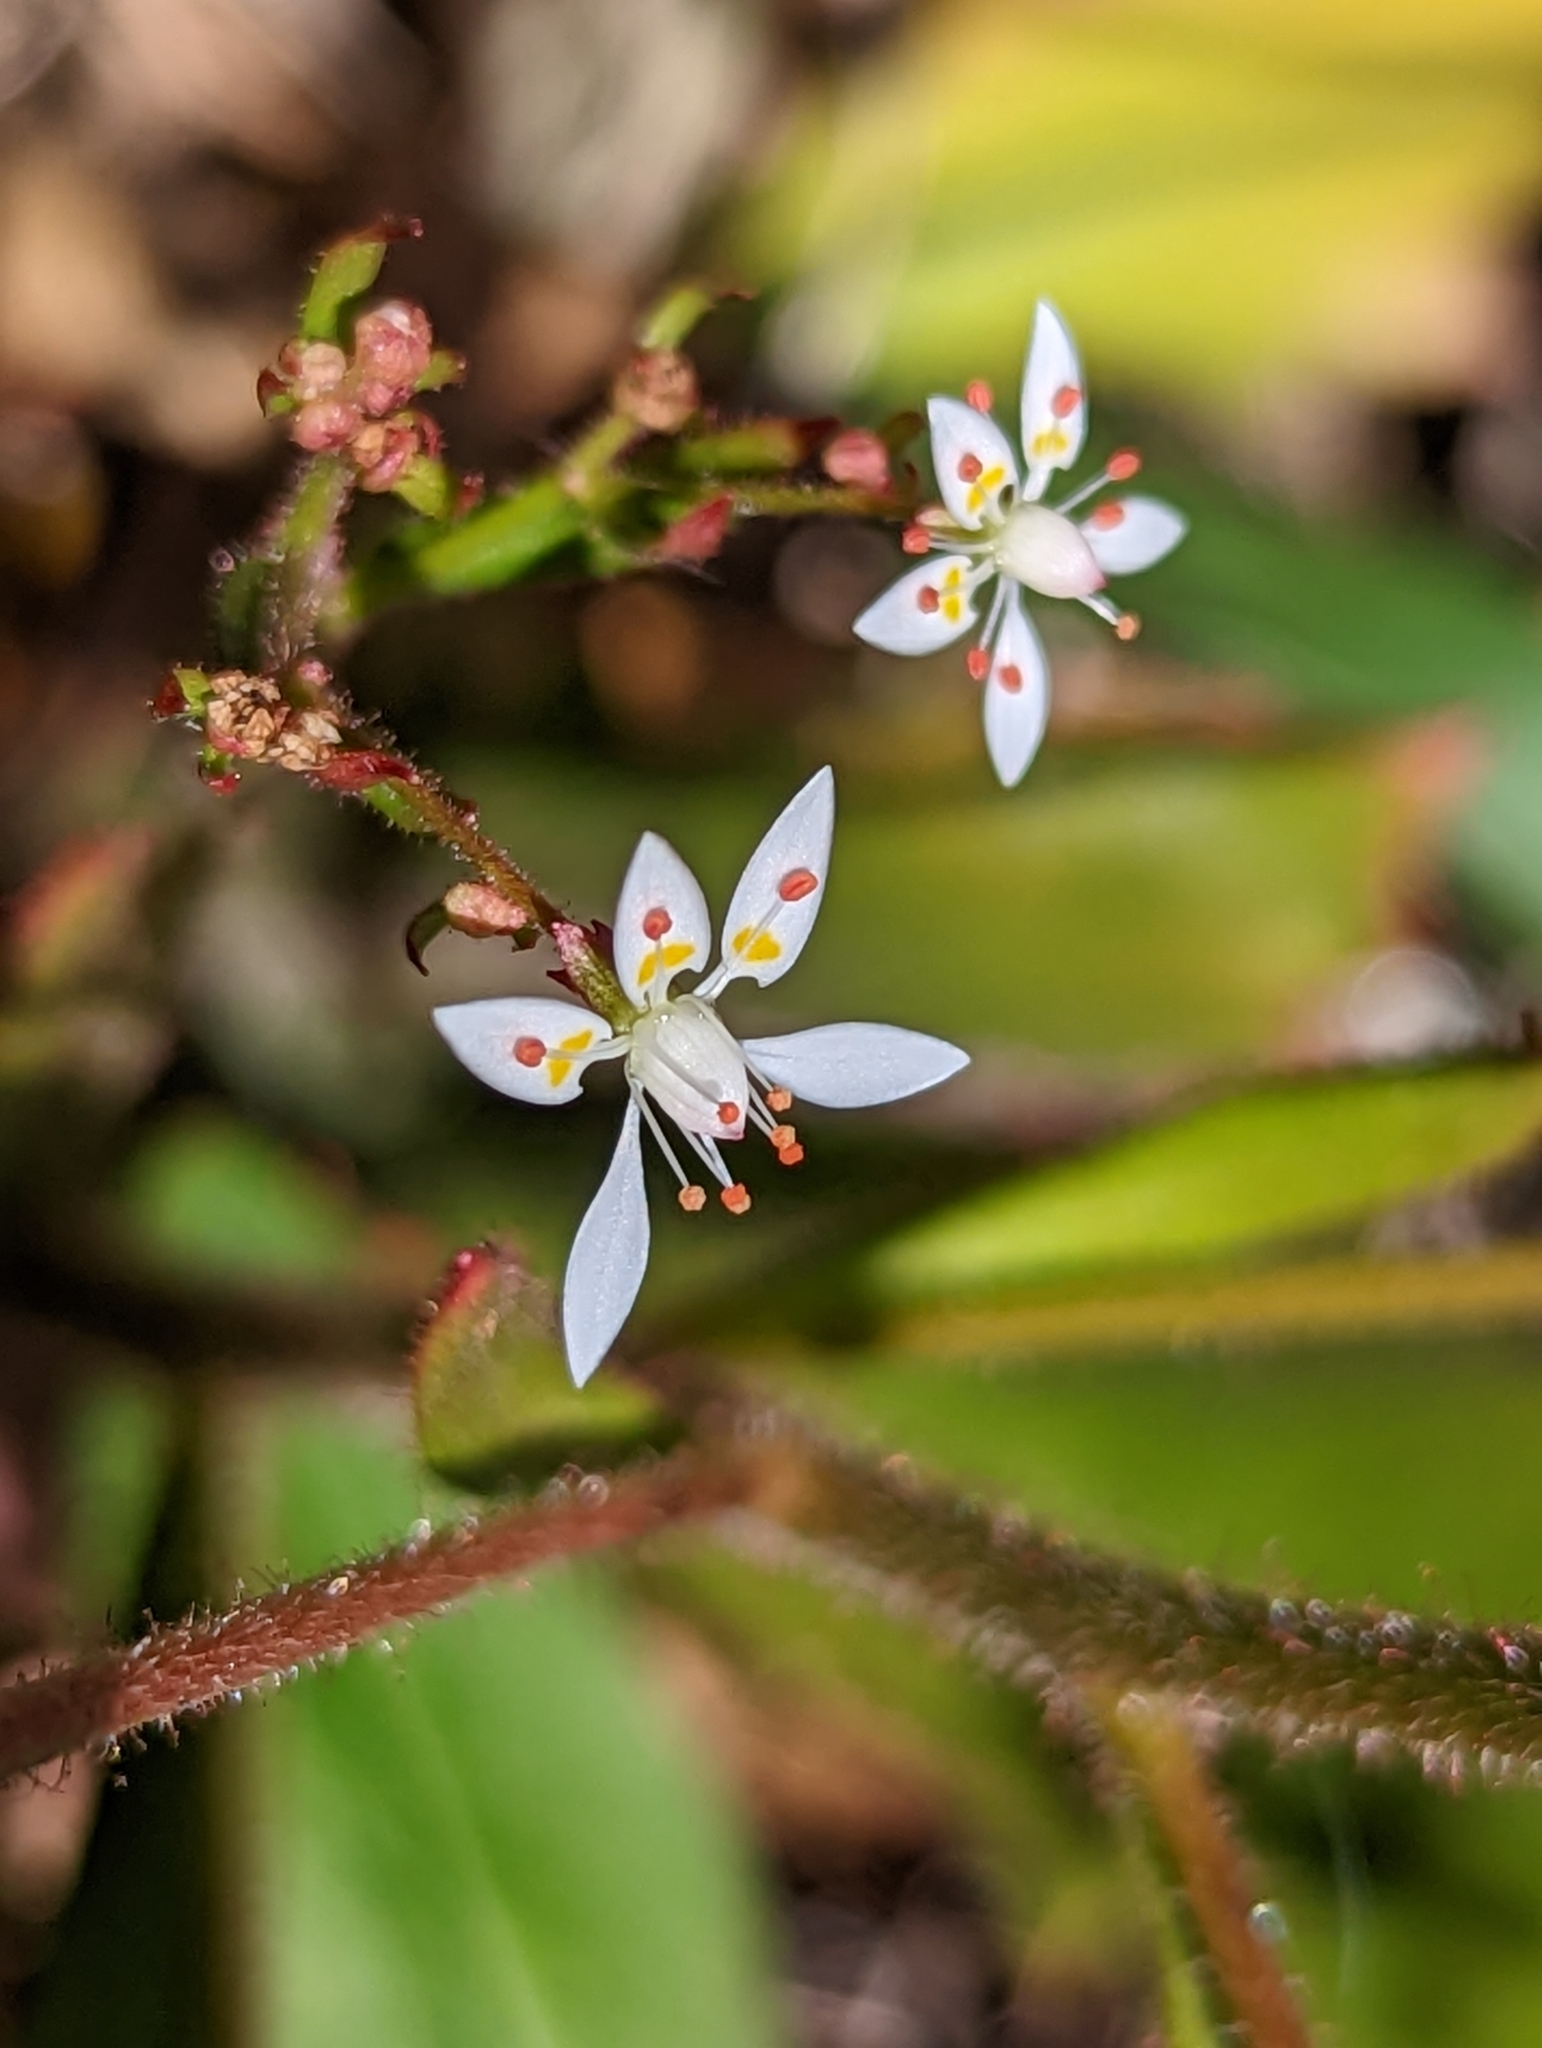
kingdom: Plantae
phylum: Tracheophyta
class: Magnoliopsida
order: Saxifragales
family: Saxifragaceae
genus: Micranthes
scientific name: Micranthes petiolaris
